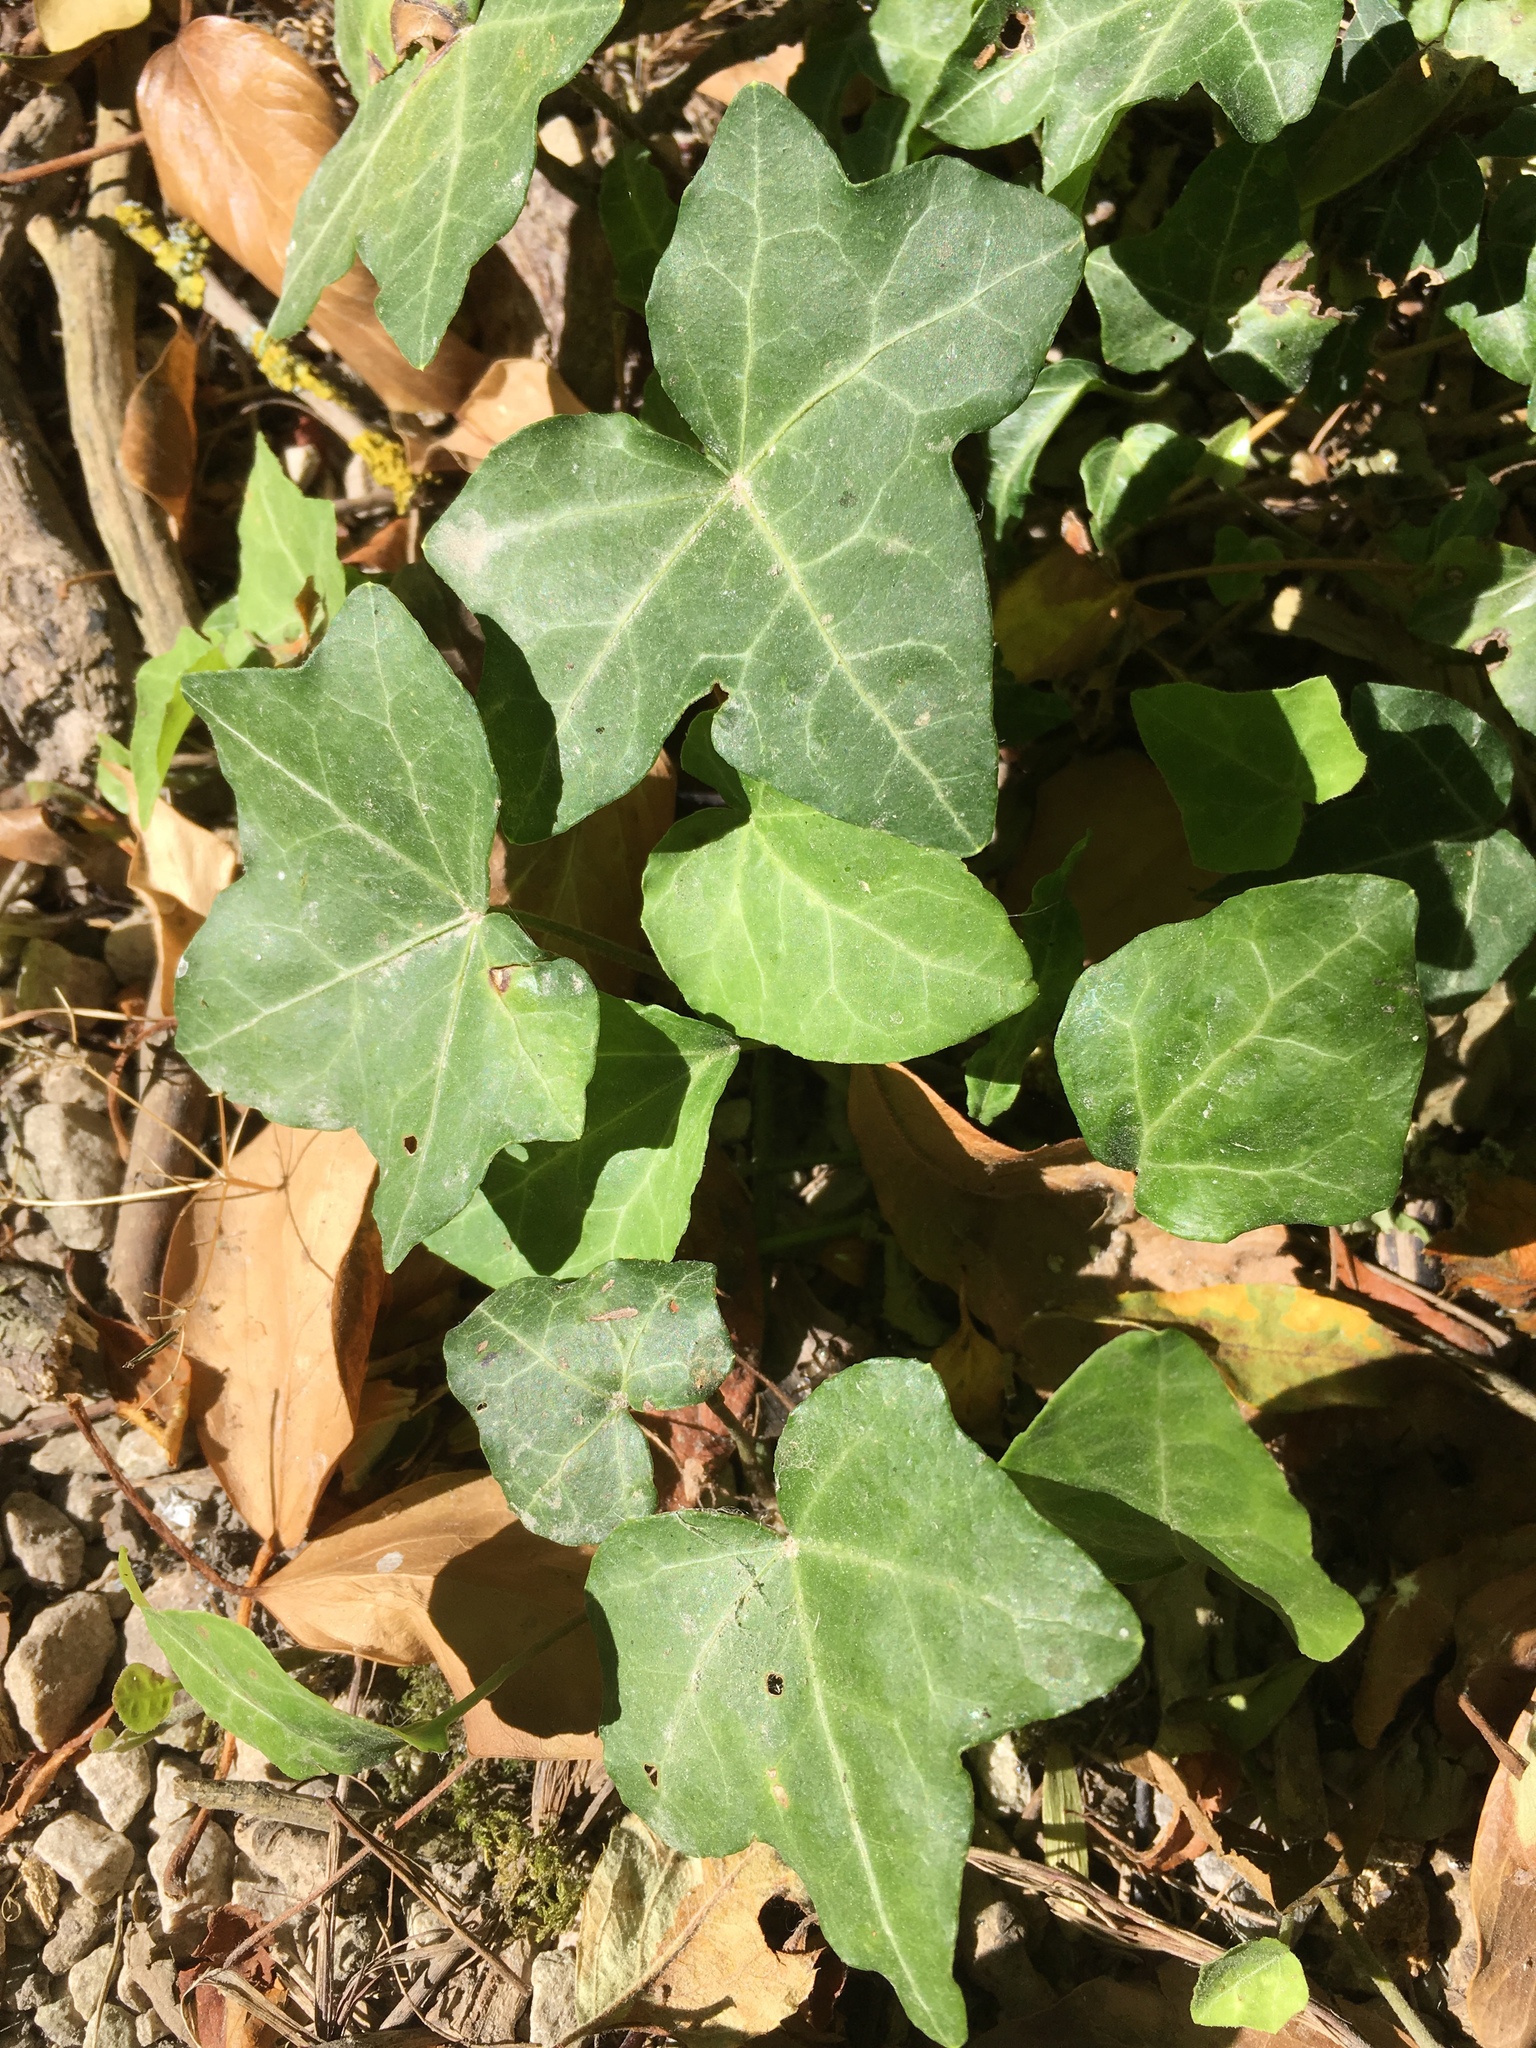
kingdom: Plantae
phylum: Tracheophyta
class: Magnoliopsida
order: Apiales
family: Araliaceae
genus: Hedera
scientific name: Hedera helix
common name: Ivy
